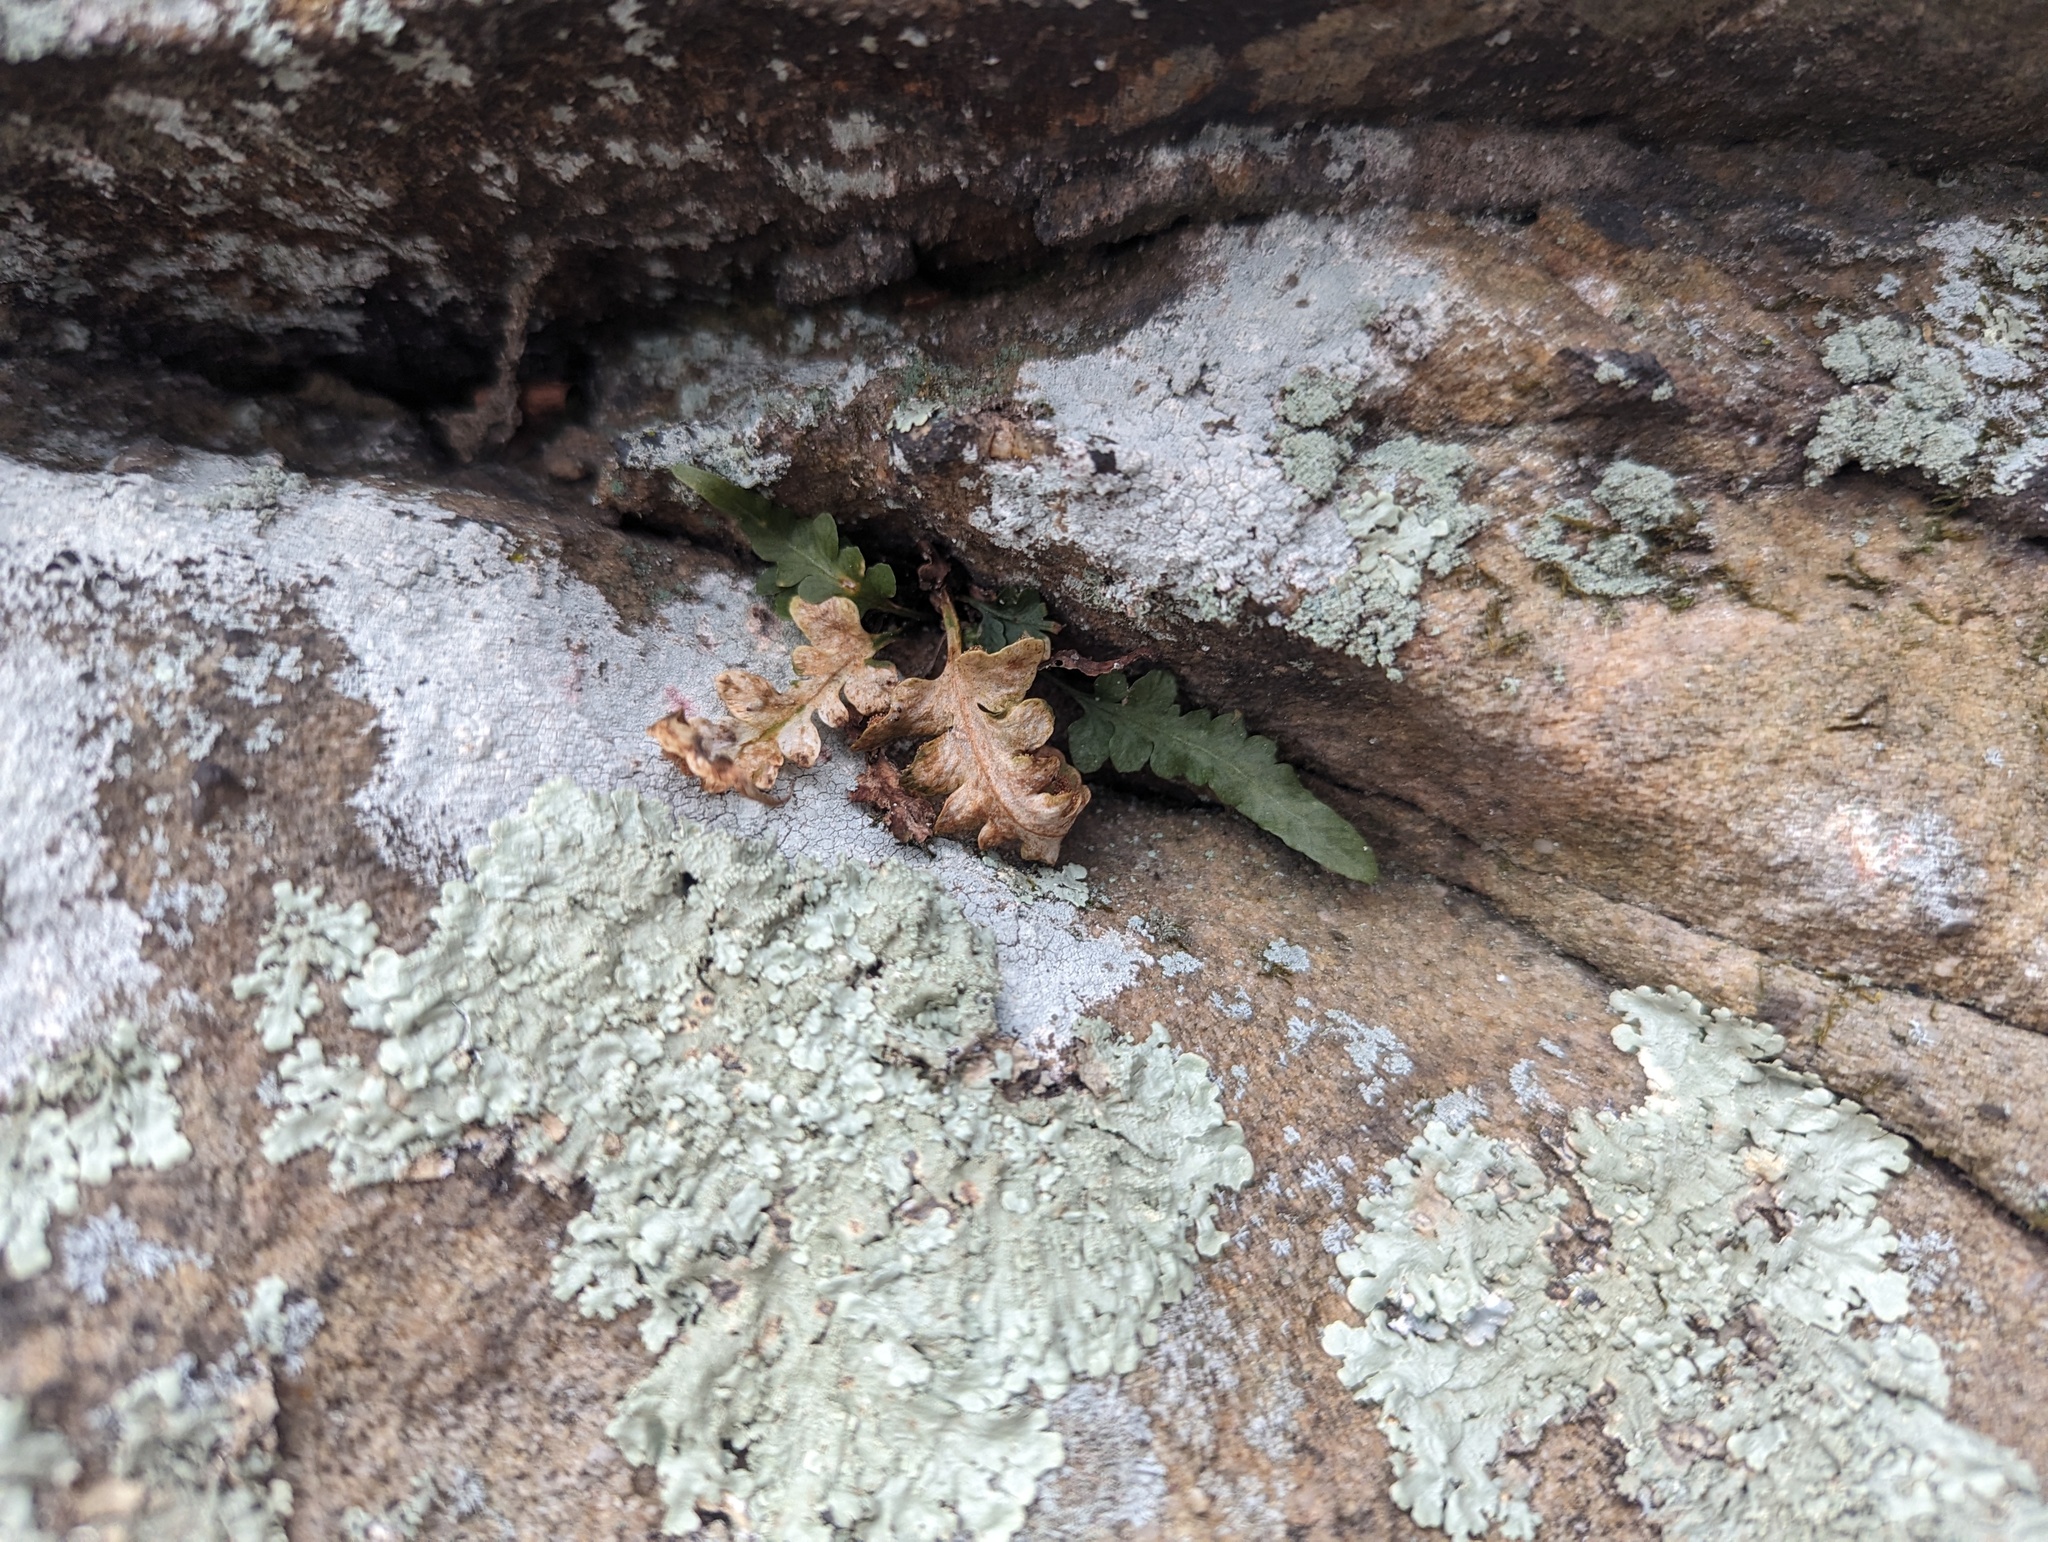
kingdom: Plantae
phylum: Tracheophyta
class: Polypodiopsida
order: Polypodiales
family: Aspleniaceae
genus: Asplenium
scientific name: Asplenium pinnatifidum
